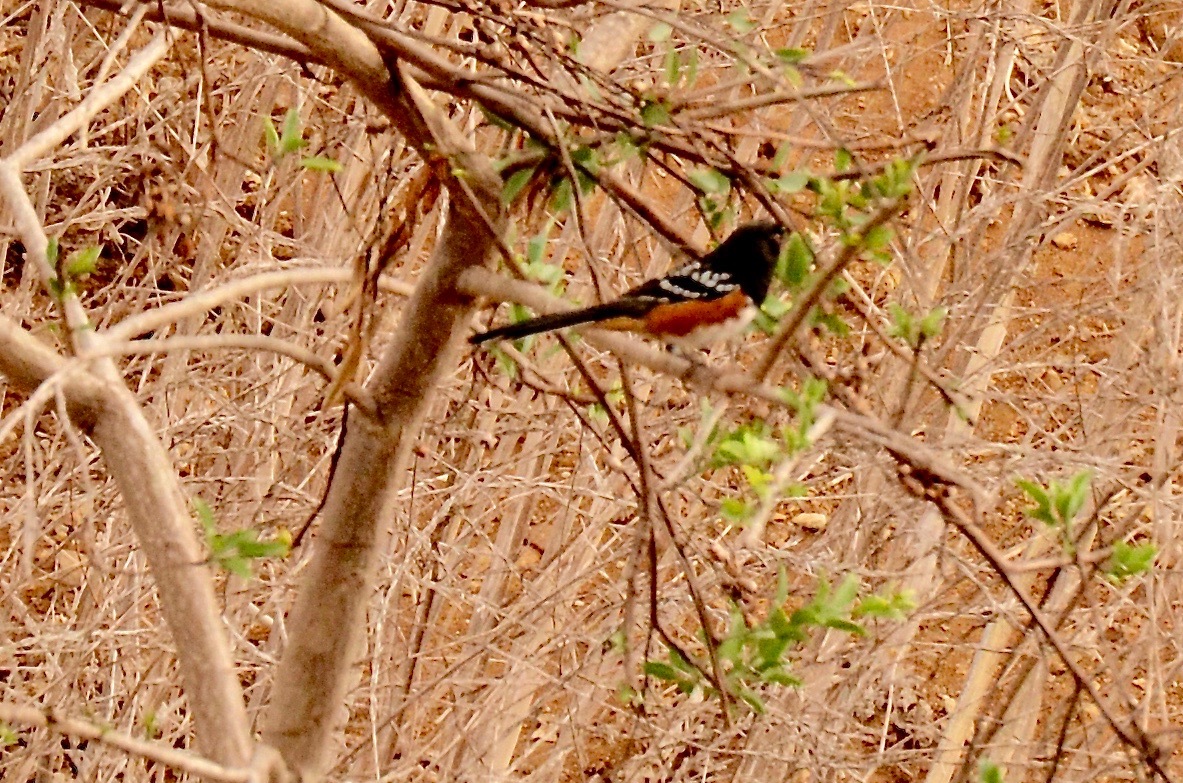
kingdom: Animalia
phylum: Chordata
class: Aves
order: Passeriformes
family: Passerellidae
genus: Pipilo
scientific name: Pipilo maculatus
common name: Spotted towhee
